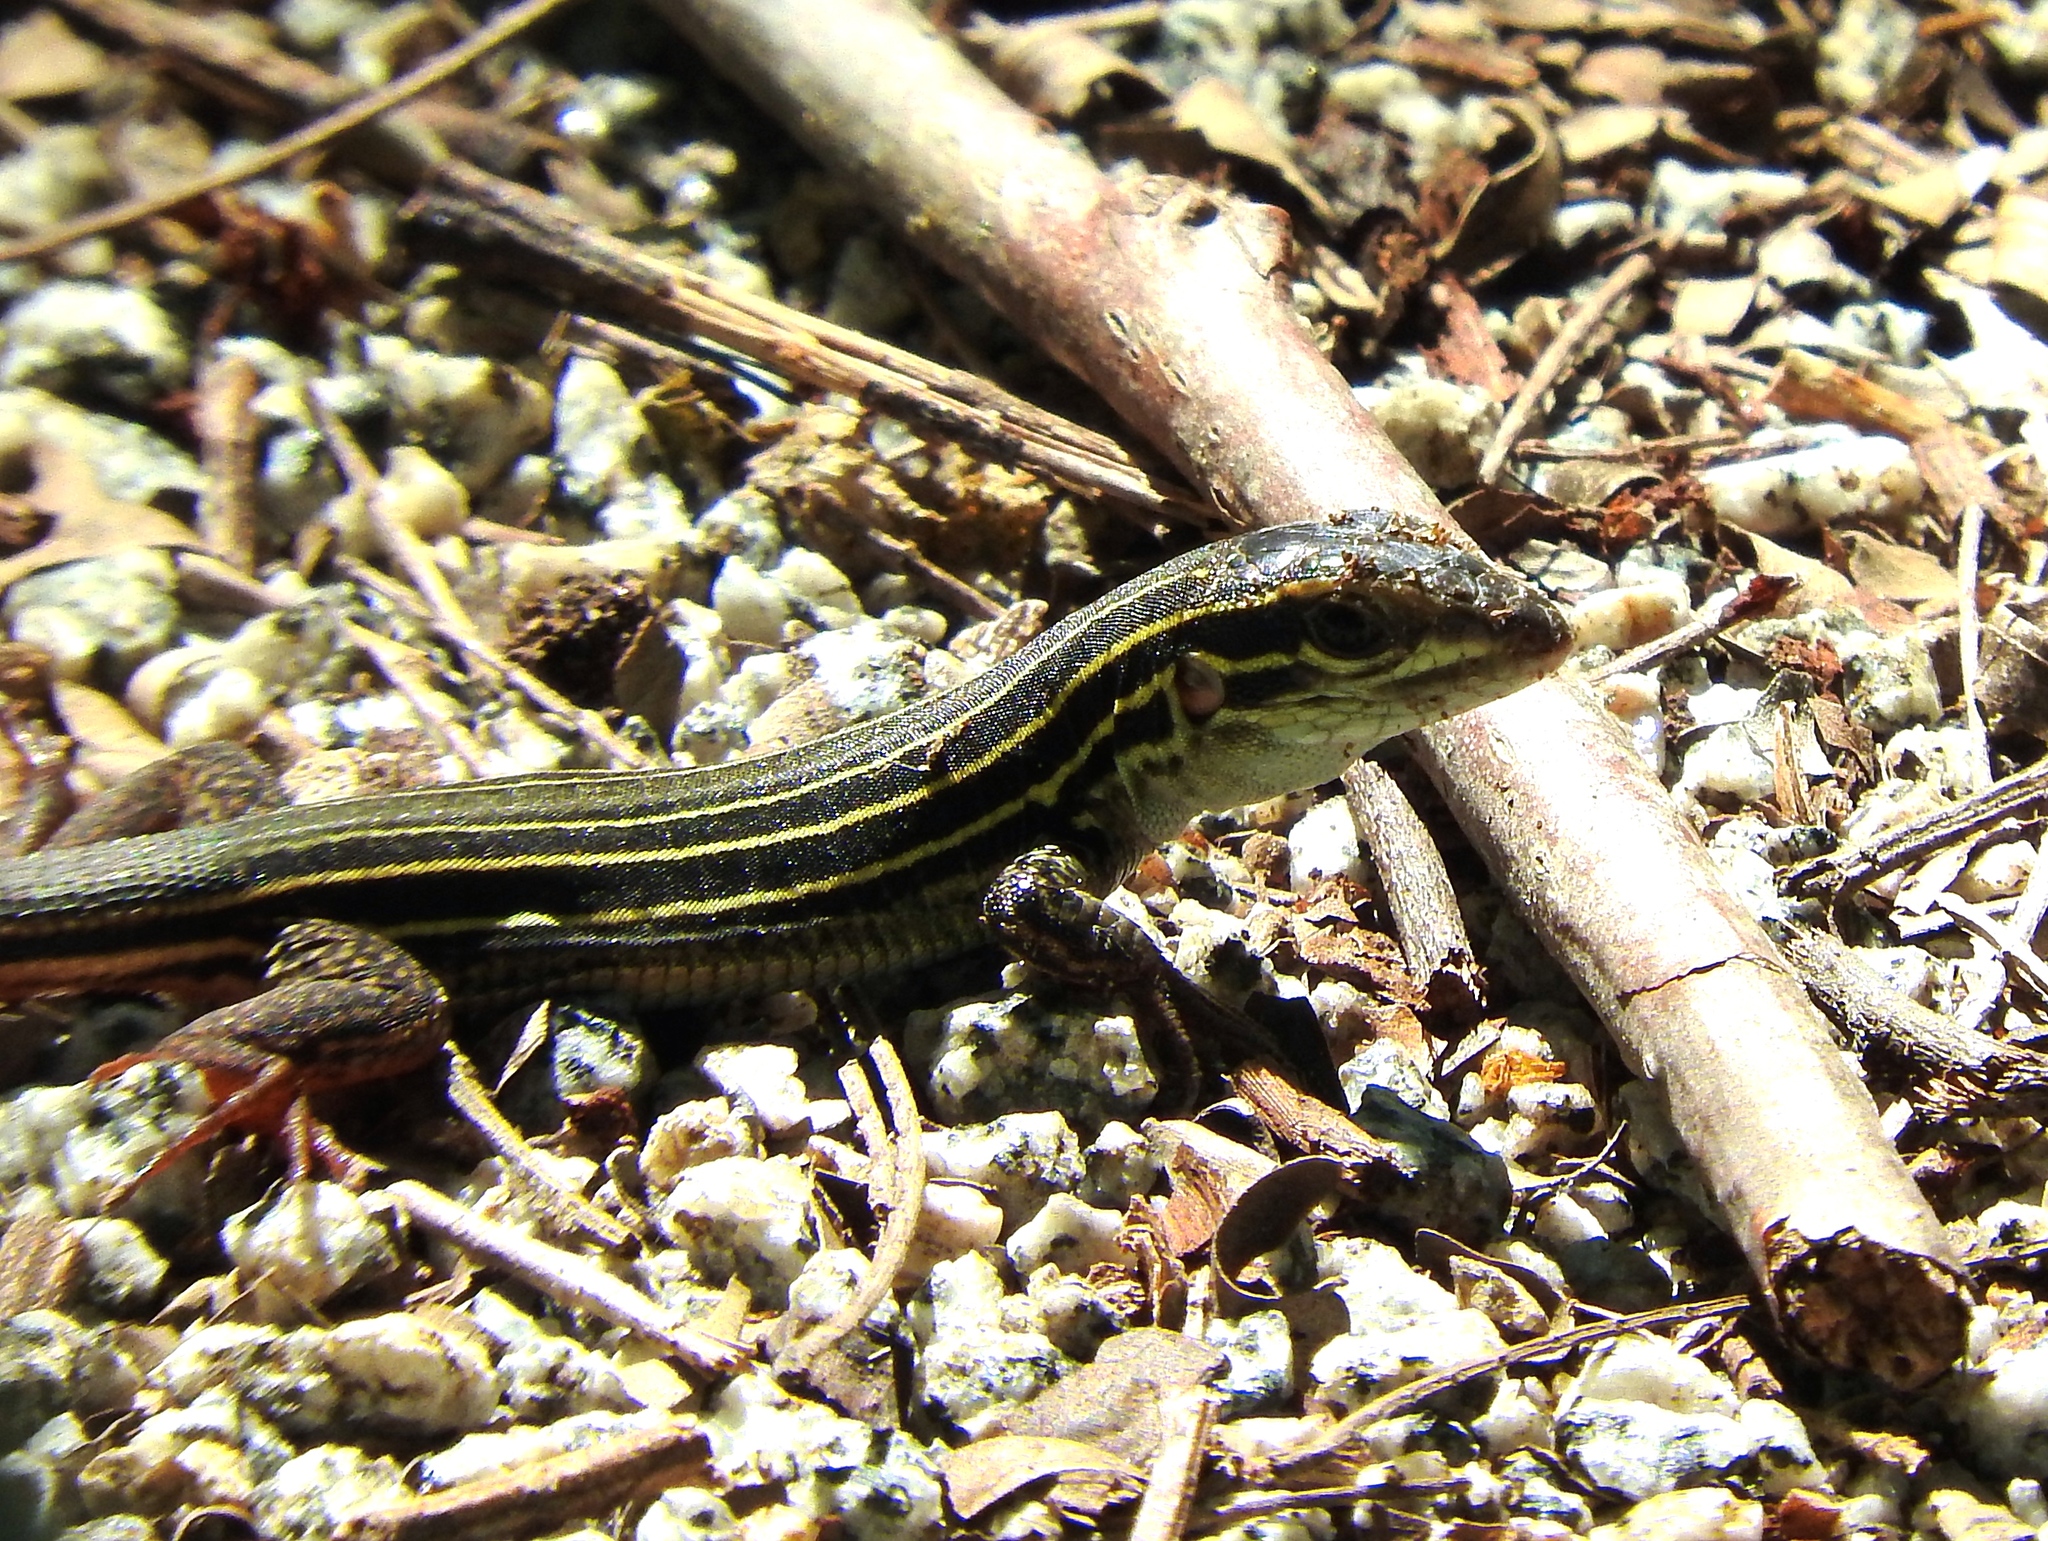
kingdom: Animalia
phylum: Chordata
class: Squamata
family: Teiidae
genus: Aspidoscelis
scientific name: Aspidoscelis costatus
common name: Western mexico whiptail
